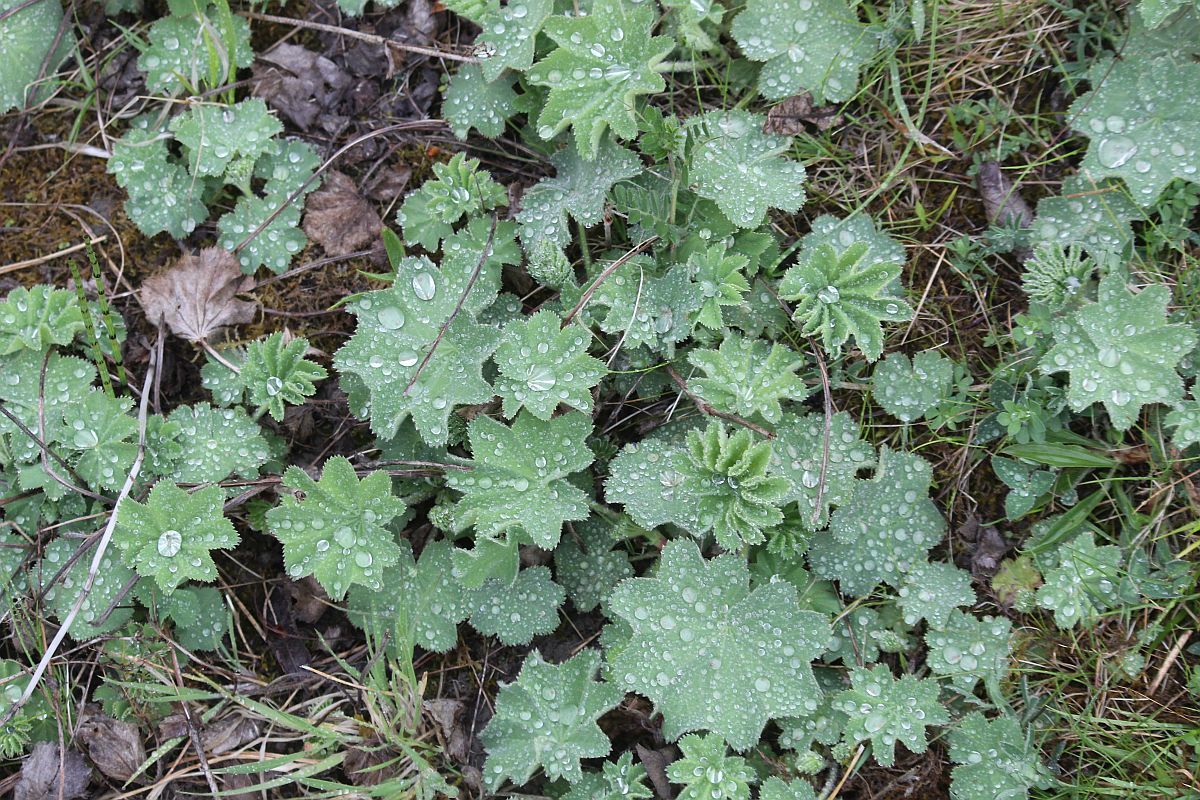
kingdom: Plantae
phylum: Tracheophyta
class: Magnoliopsida
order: Rosales
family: Rosaceae
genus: Alchemilla
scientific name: Alchemilla mollis
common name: Lady's-mantle
